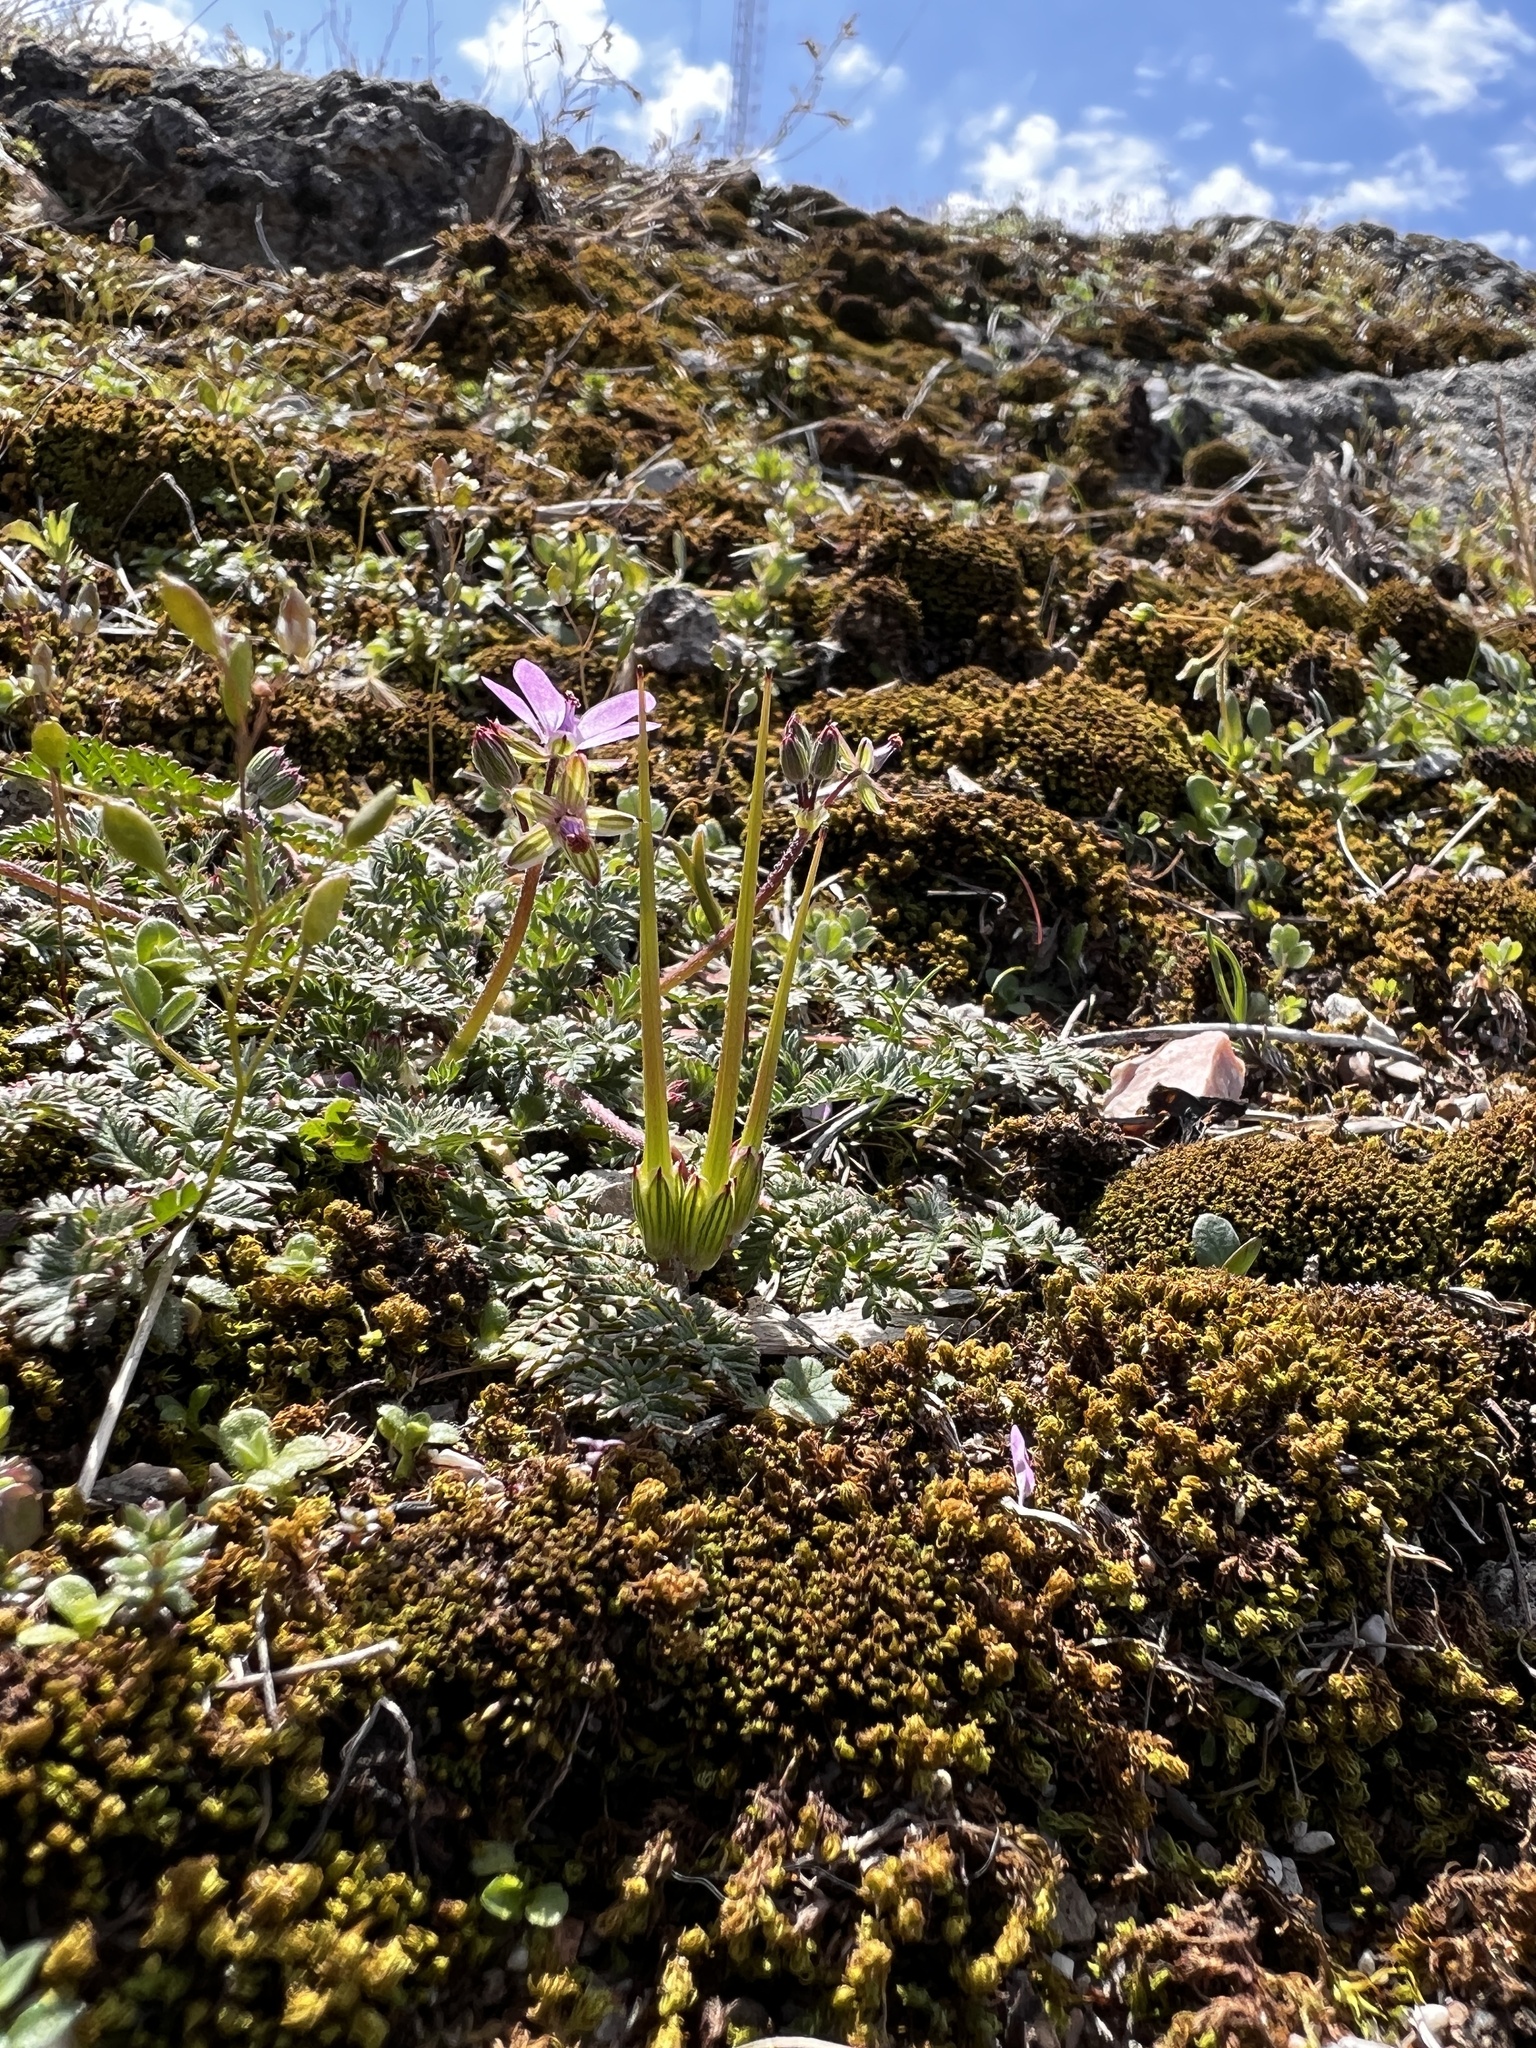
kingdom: Plantae
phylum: Tracheophyta
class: Magnoliopsida
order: Geraniales
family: Geraniaceae
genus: Erodium
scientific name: Erodium cicutarium
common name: Common stork's-bill
